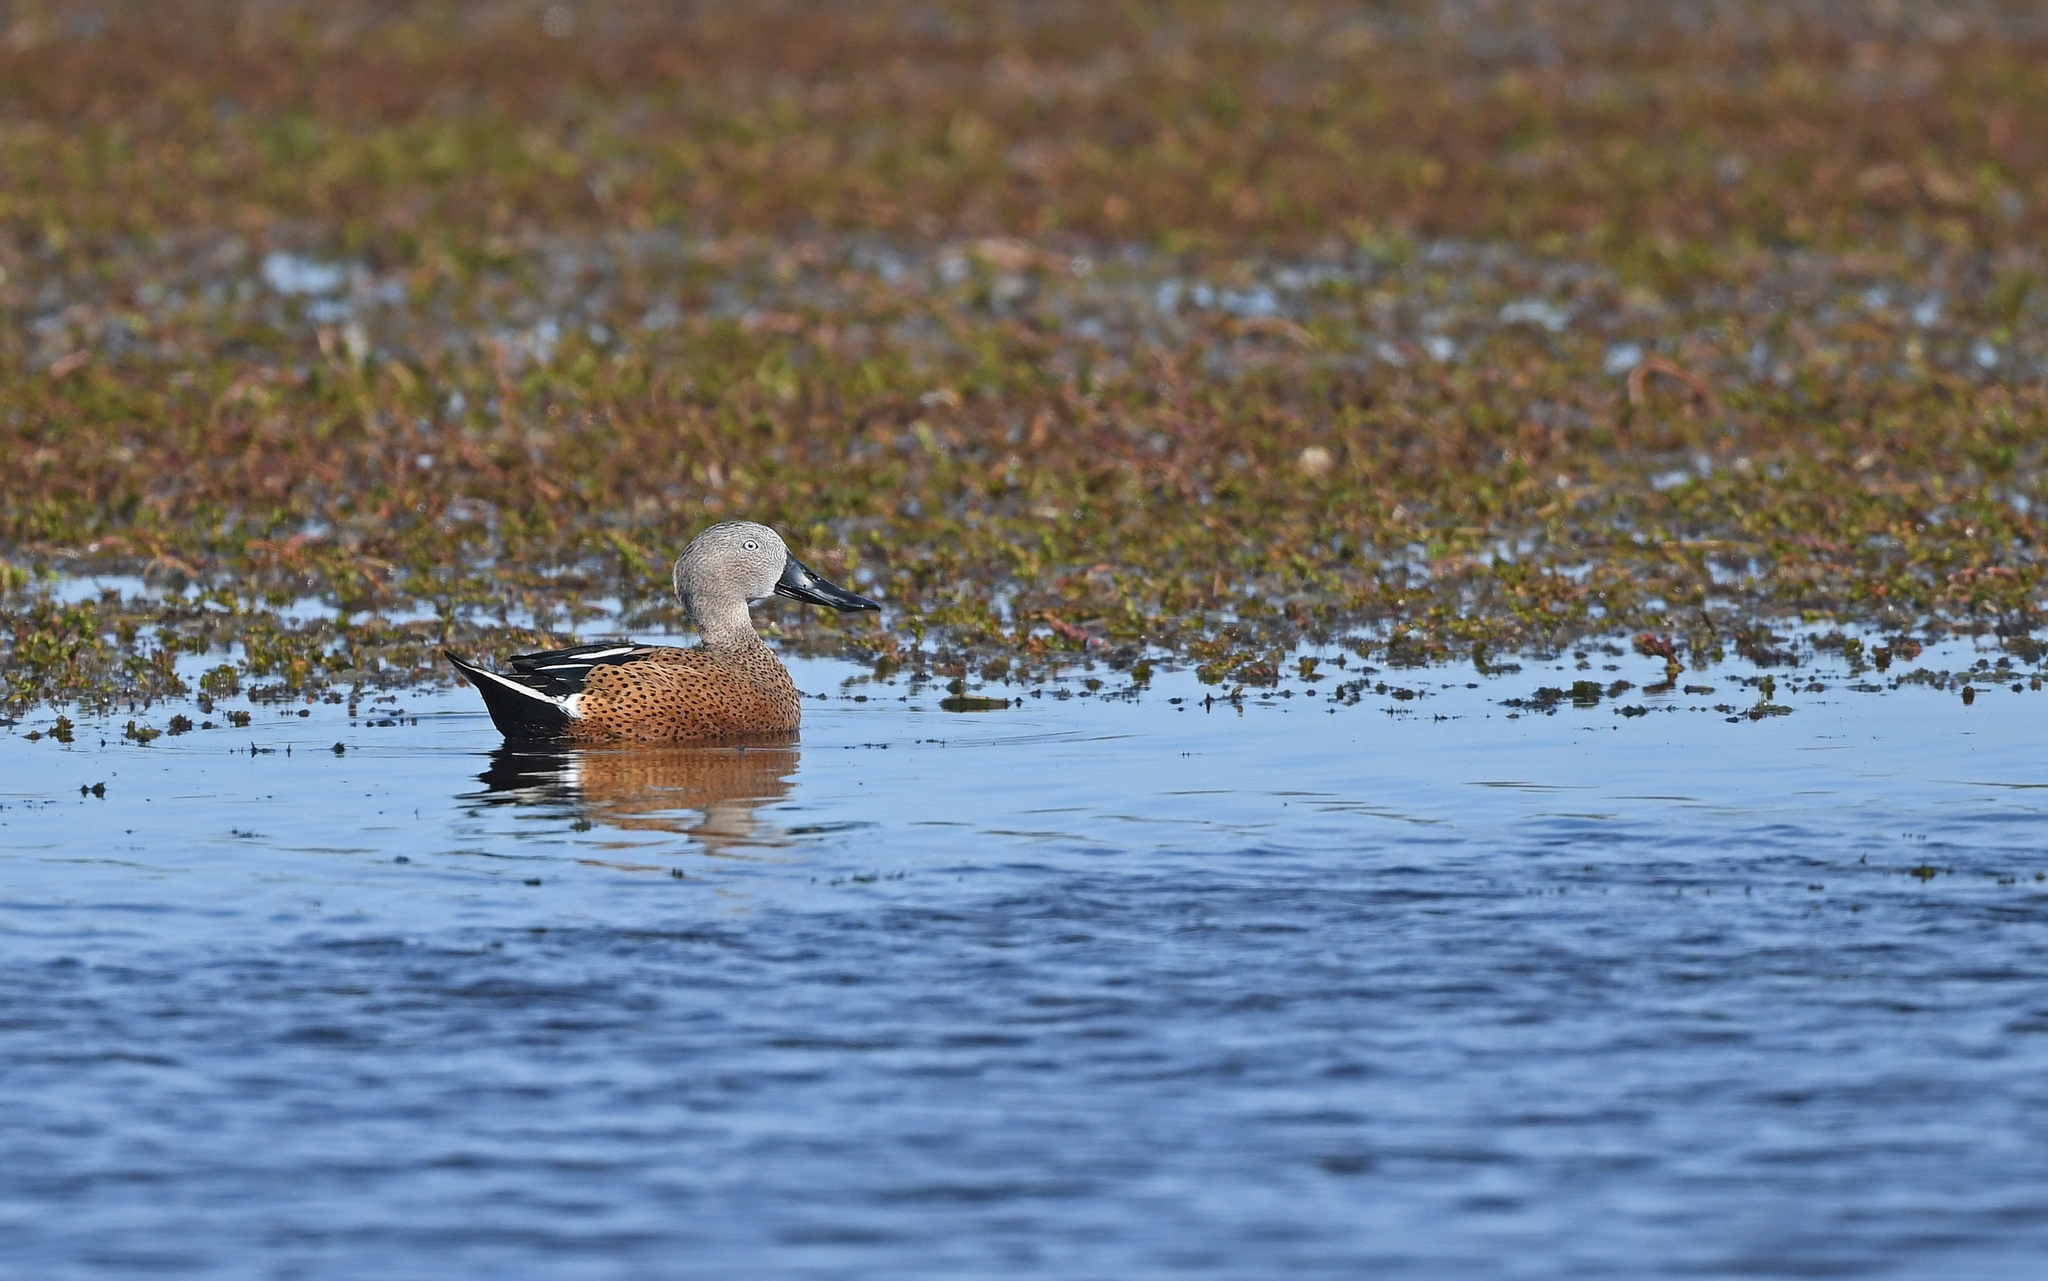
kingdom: Animalia
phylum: Chordata
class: Aves
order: Anseriformes
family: Anatidae
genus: Spatula
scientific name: Spatula platalea
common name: Red shoveler
